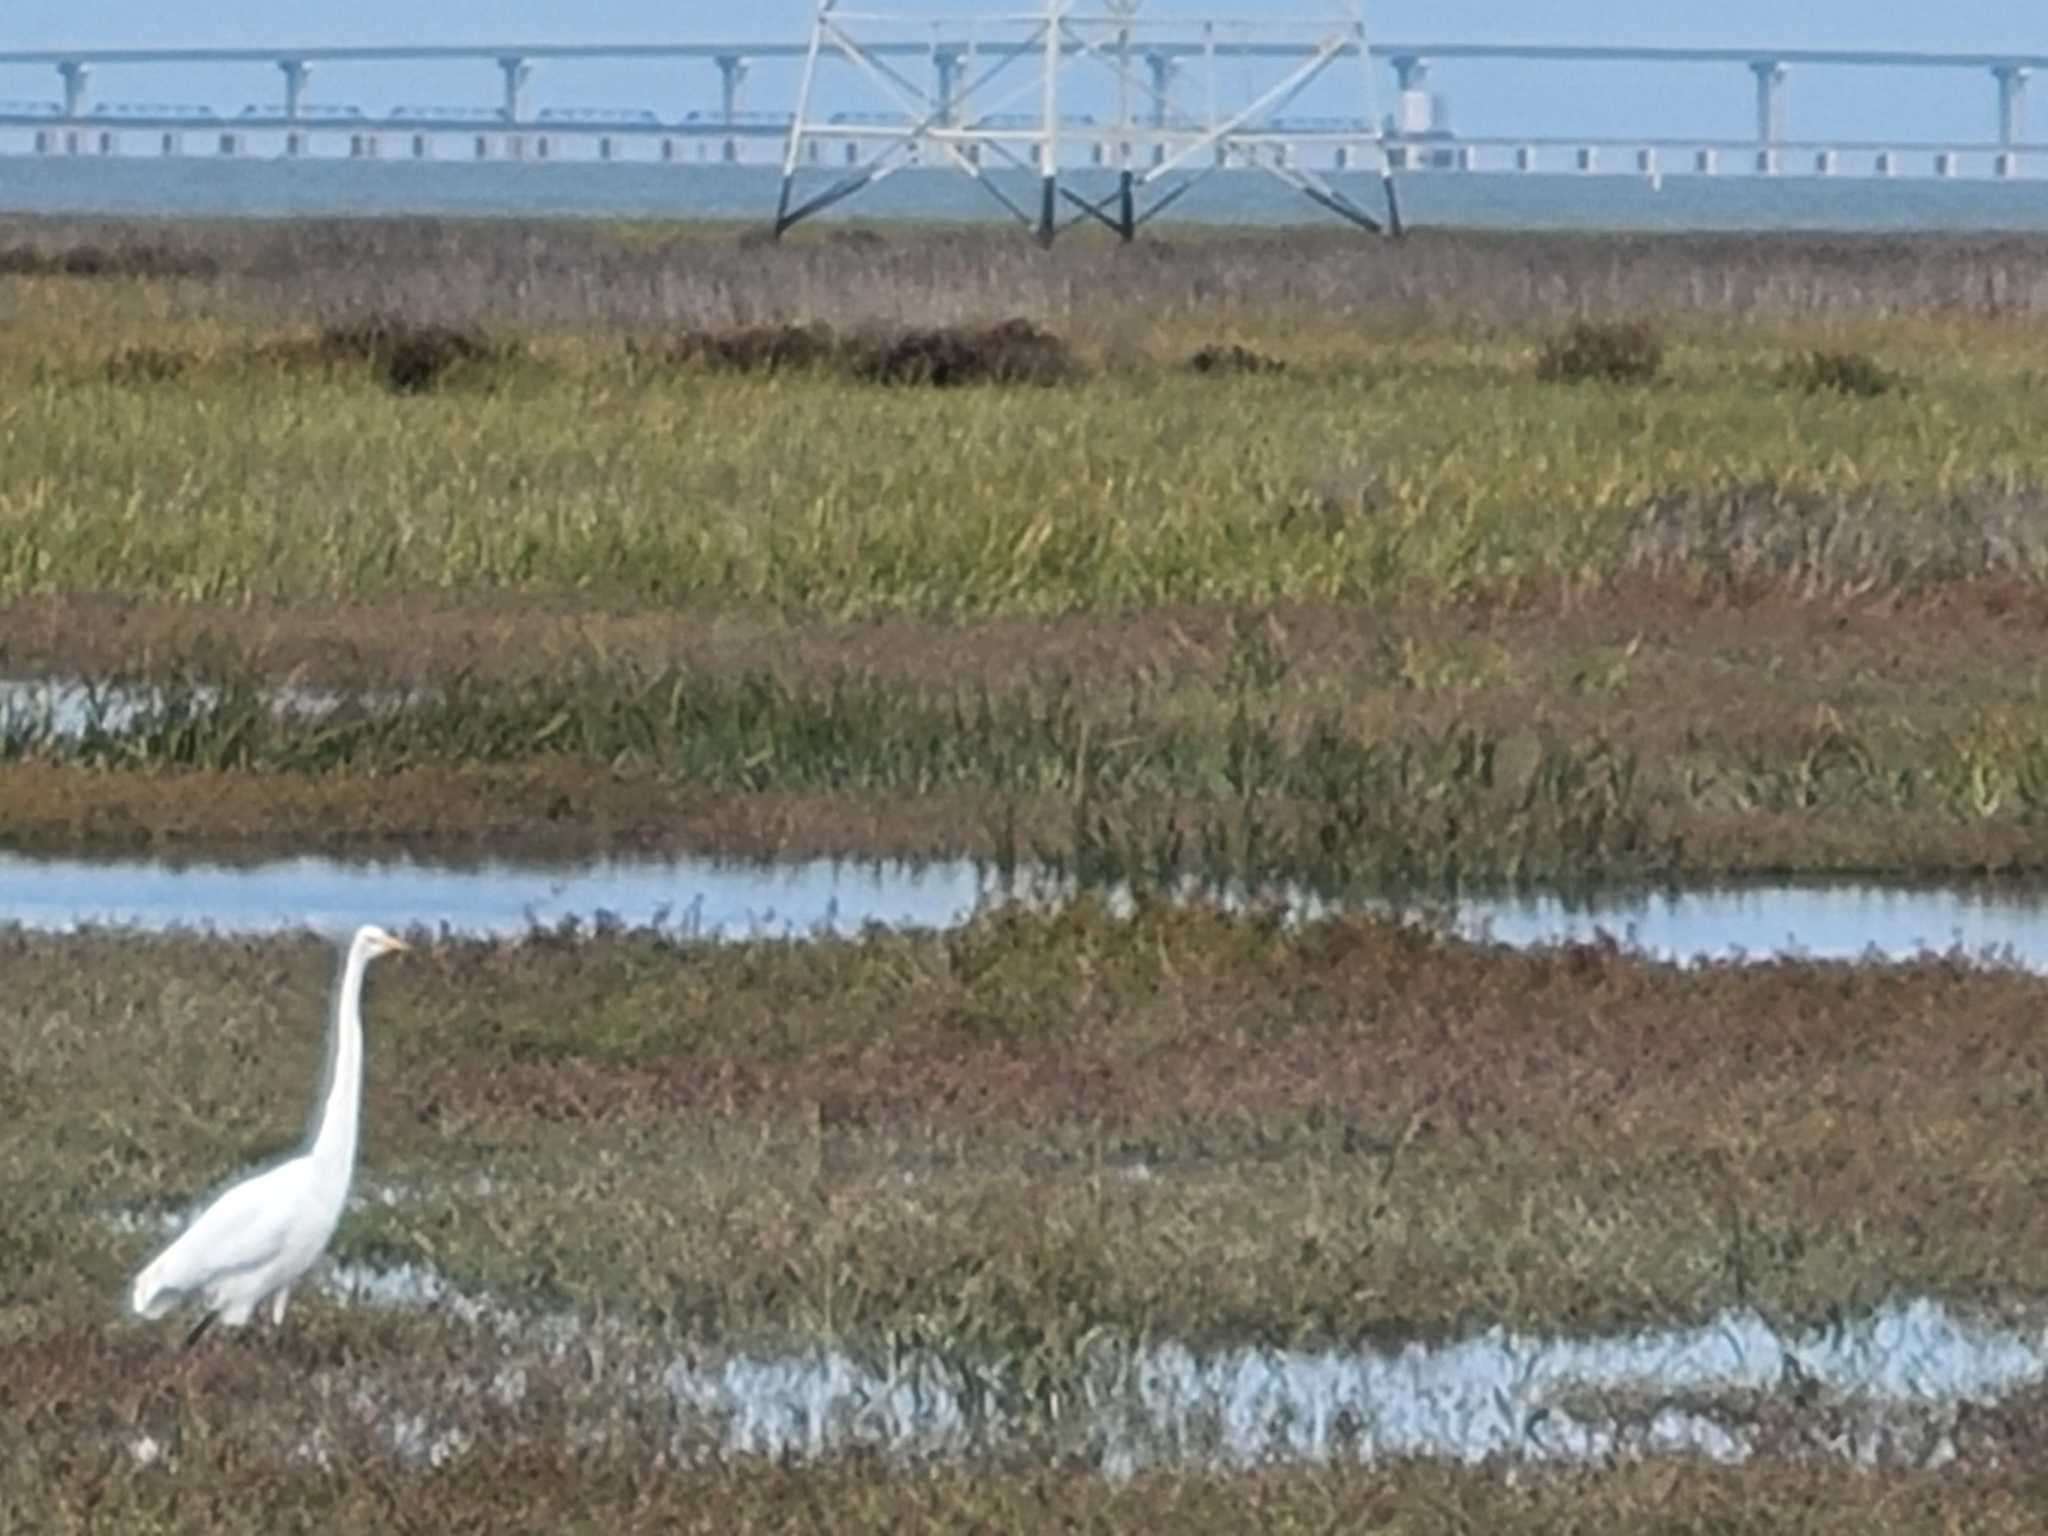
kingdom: Animalia
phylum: Chordata
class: Aves
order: Pelecaniformes
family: Ardeidae
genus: Ardea
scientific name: Ardea alba
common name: Great egret
